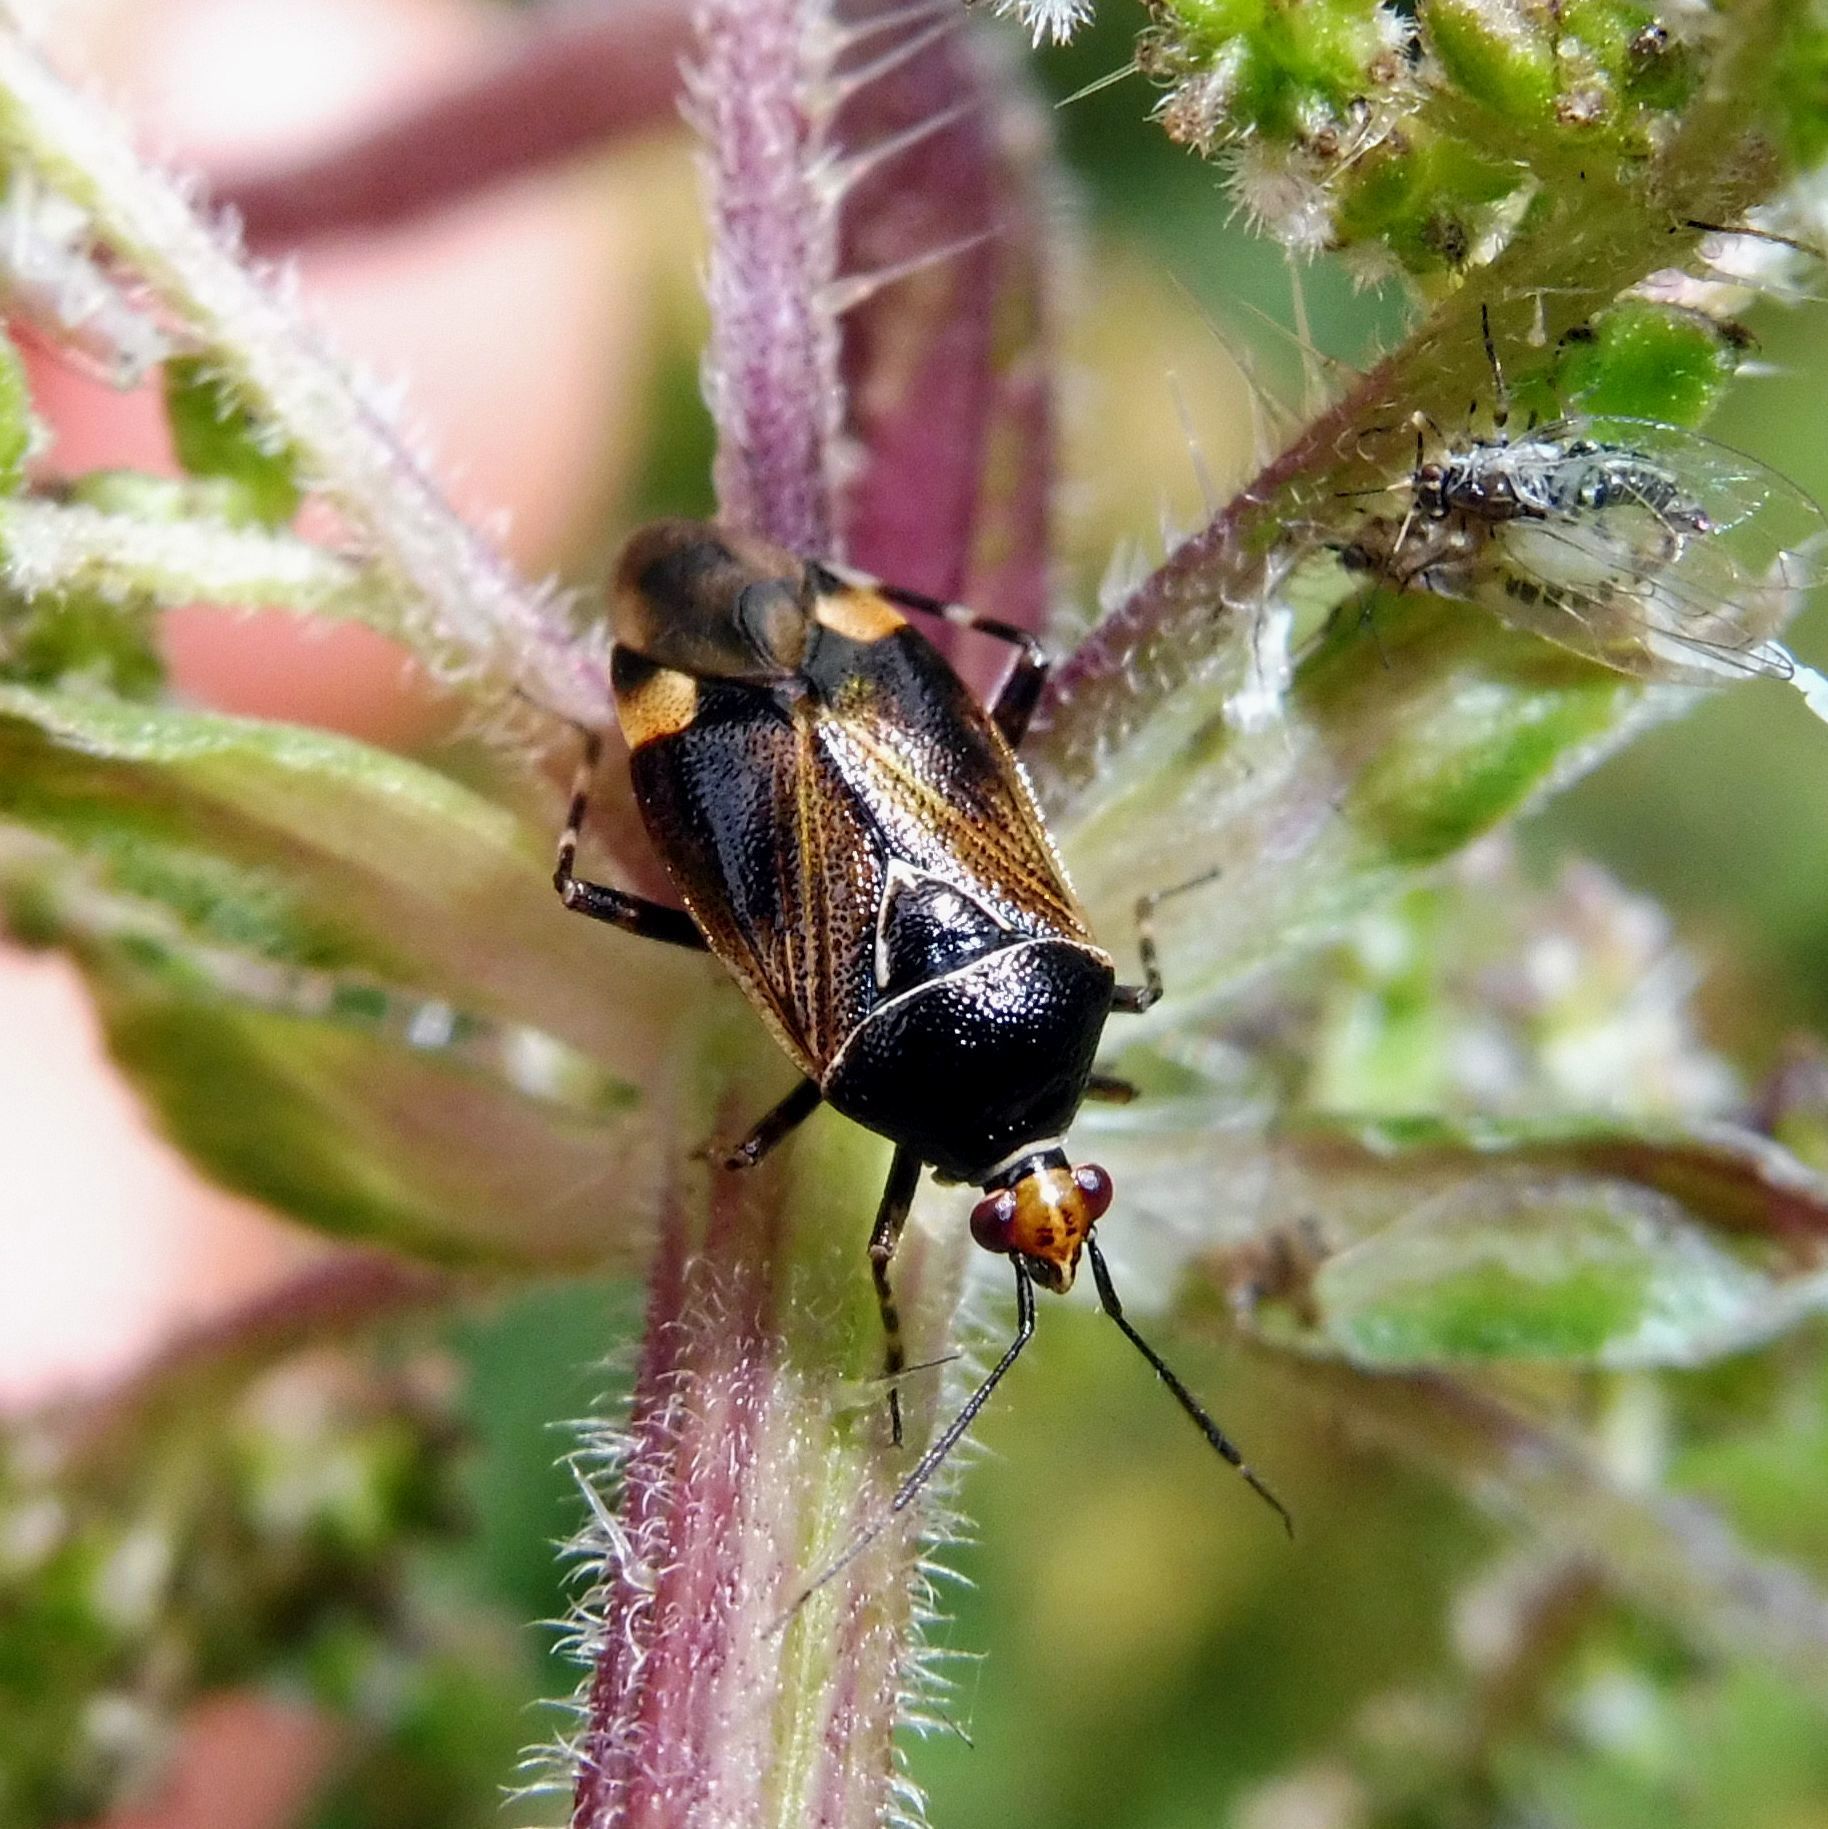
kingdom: Animalia
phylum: Arthropoda
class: Insecta
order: Hemiptera
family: Miridae
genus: Deraeocoris
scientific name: Deraeocoris flavilinea
